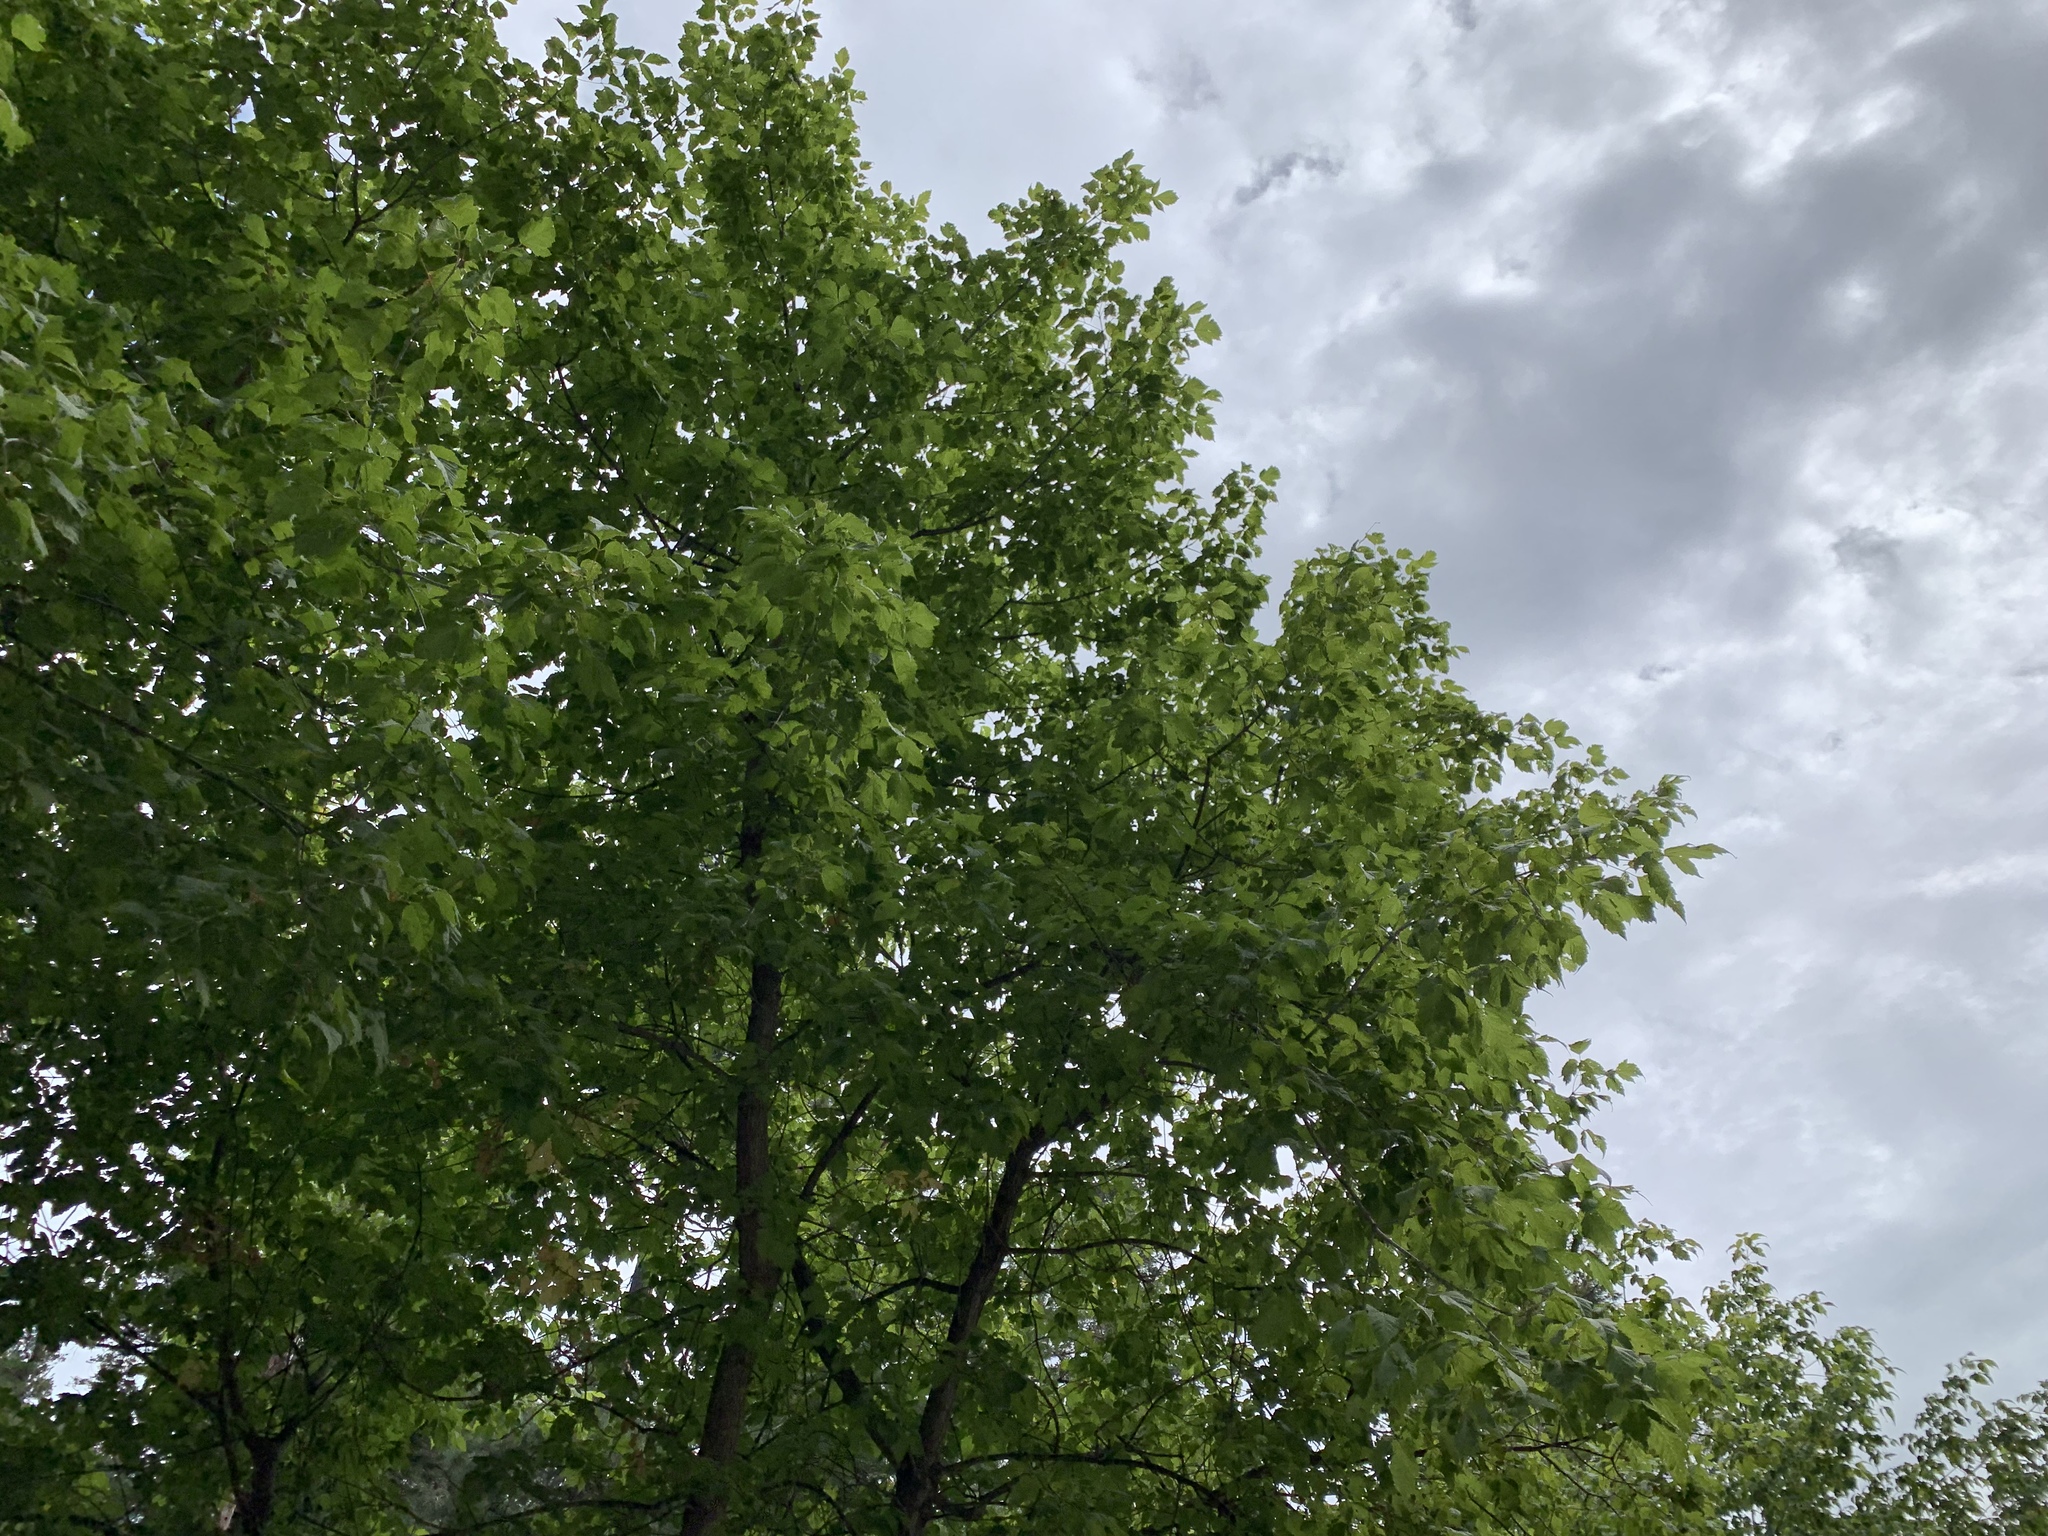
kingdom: Plantae
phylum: Tracheophyta
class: Magnoliopsida
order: Sapindales
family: Sapindaceae
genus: Acer
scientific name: Acer negundo
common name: Ashleaf maple
